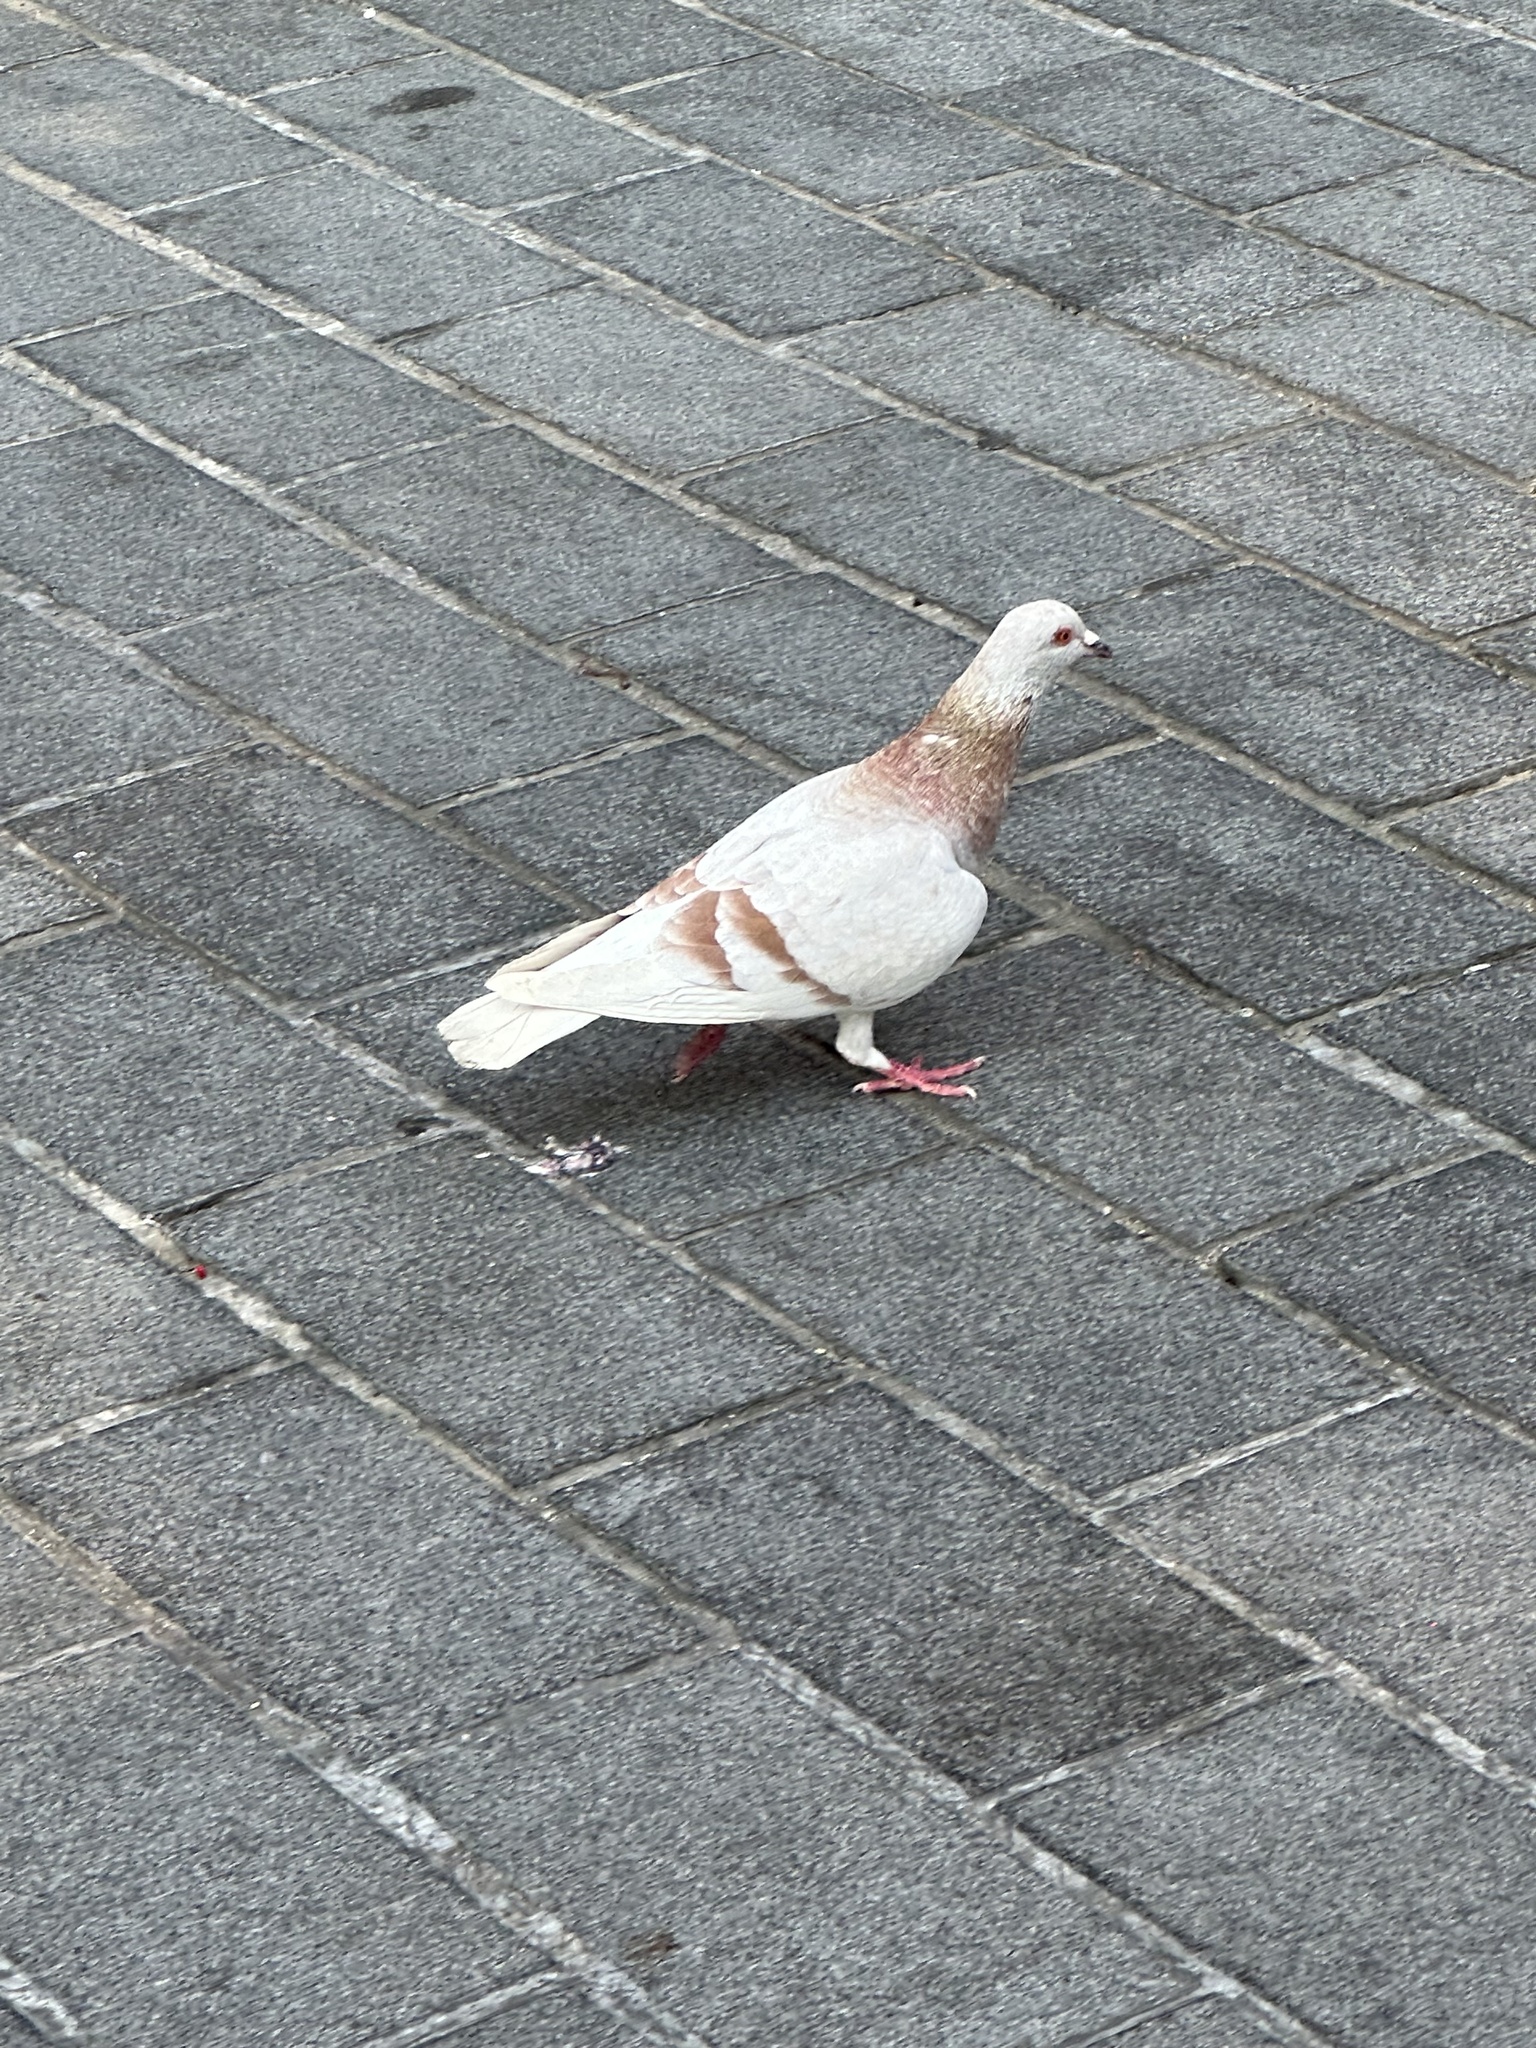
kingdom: Animalia
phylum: Chordata
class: Aves
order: Columbiformes
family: Columbidae
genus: Columba
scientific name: Columba livia
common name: Rock pigeon
